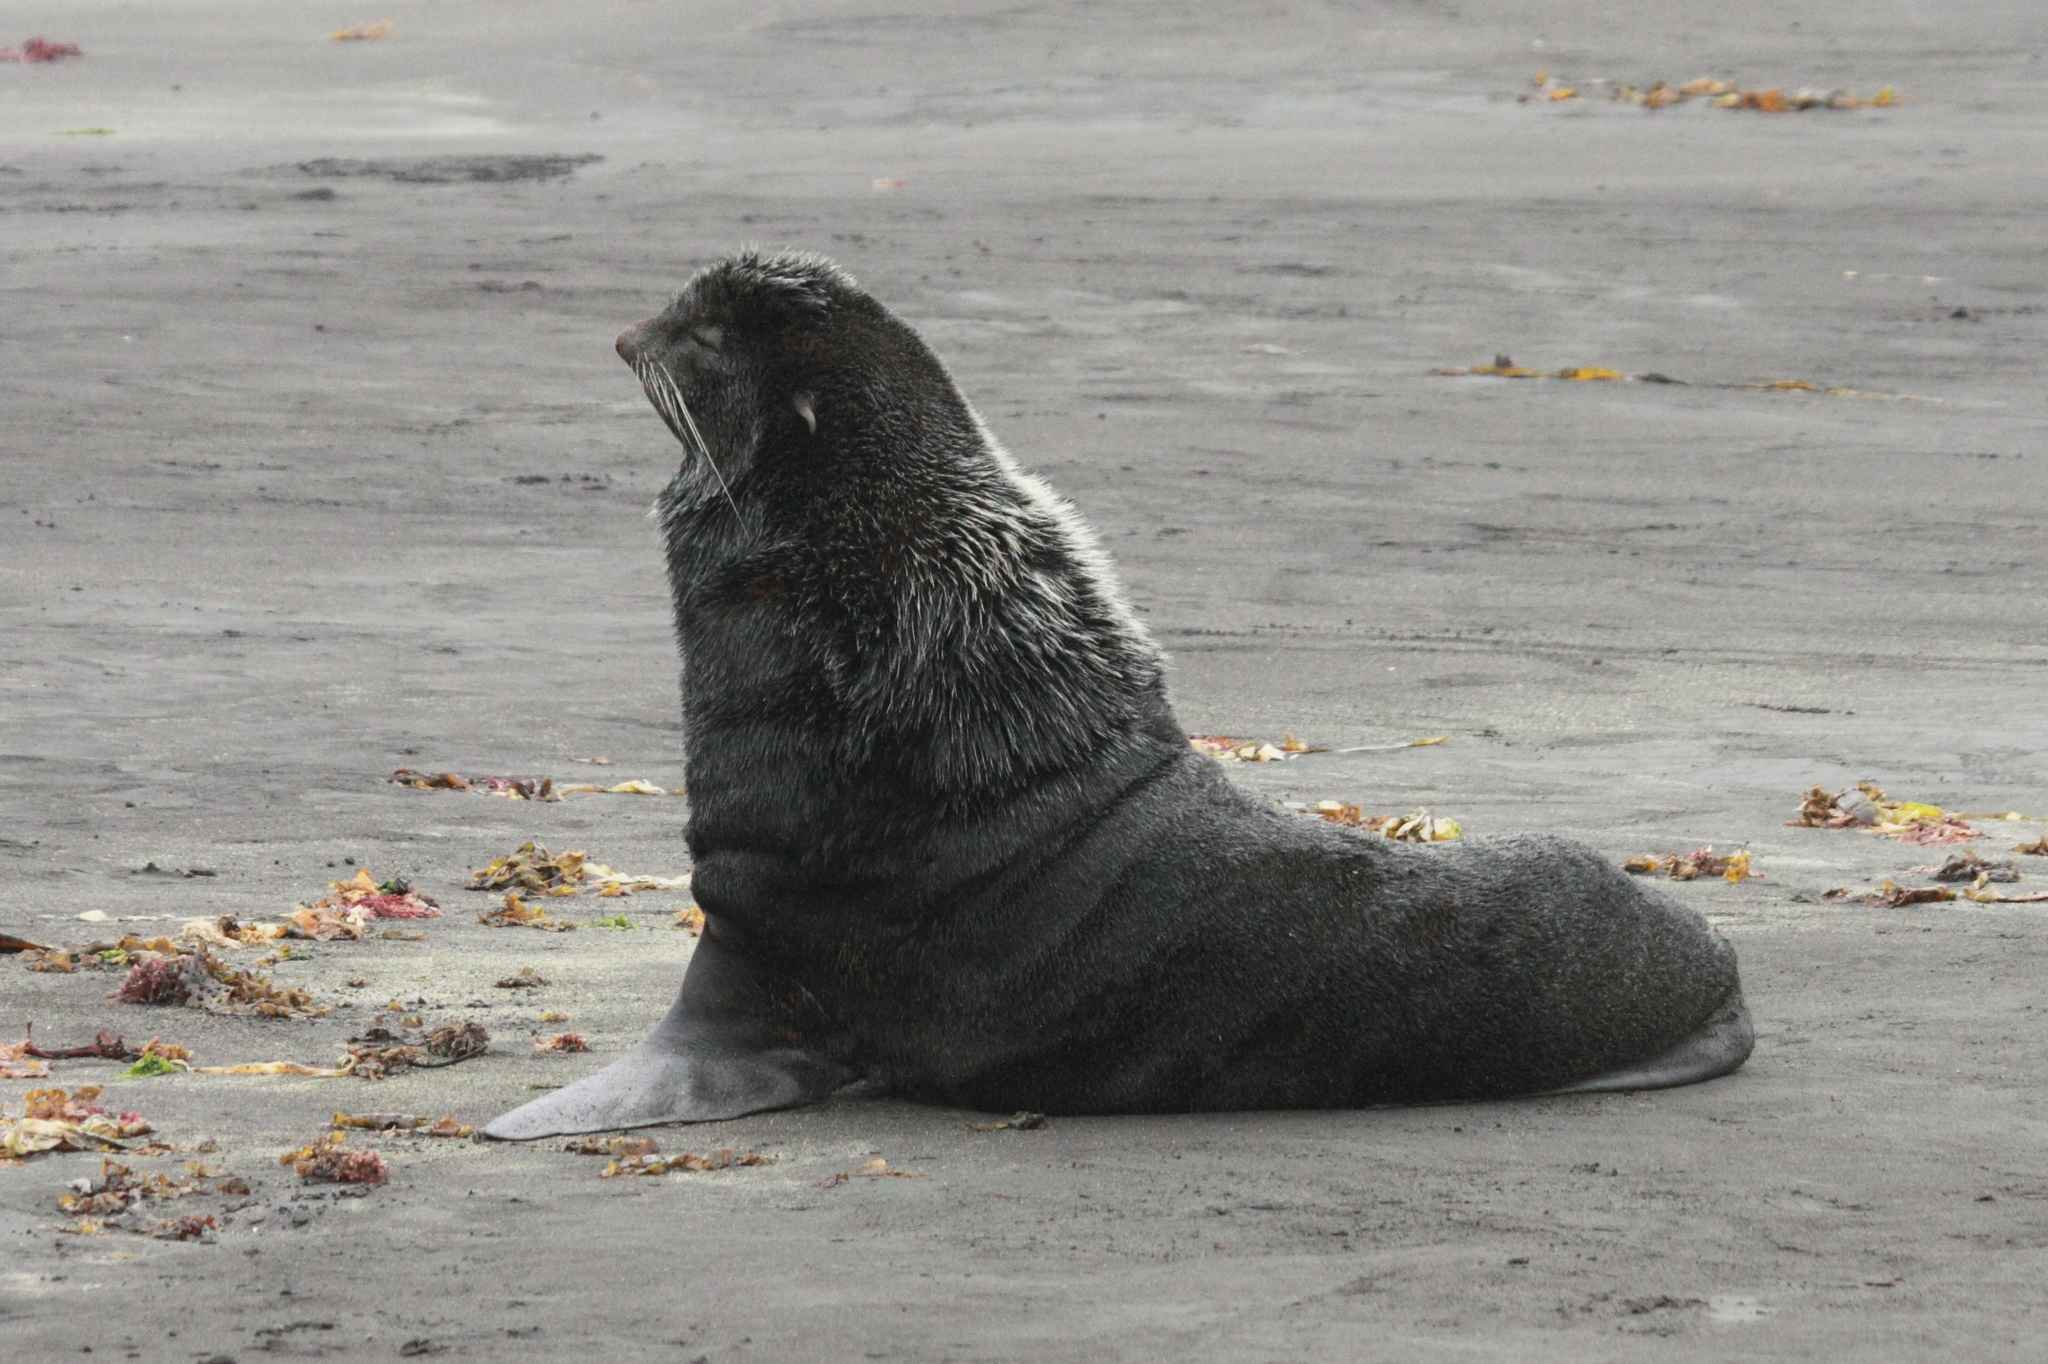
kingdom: Animalia
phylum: Chordata
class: Mammalia
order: Carnivora
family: Otariidae
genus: Callorhinus
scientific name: Callorhinus ursinus
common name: Northern fur seal
